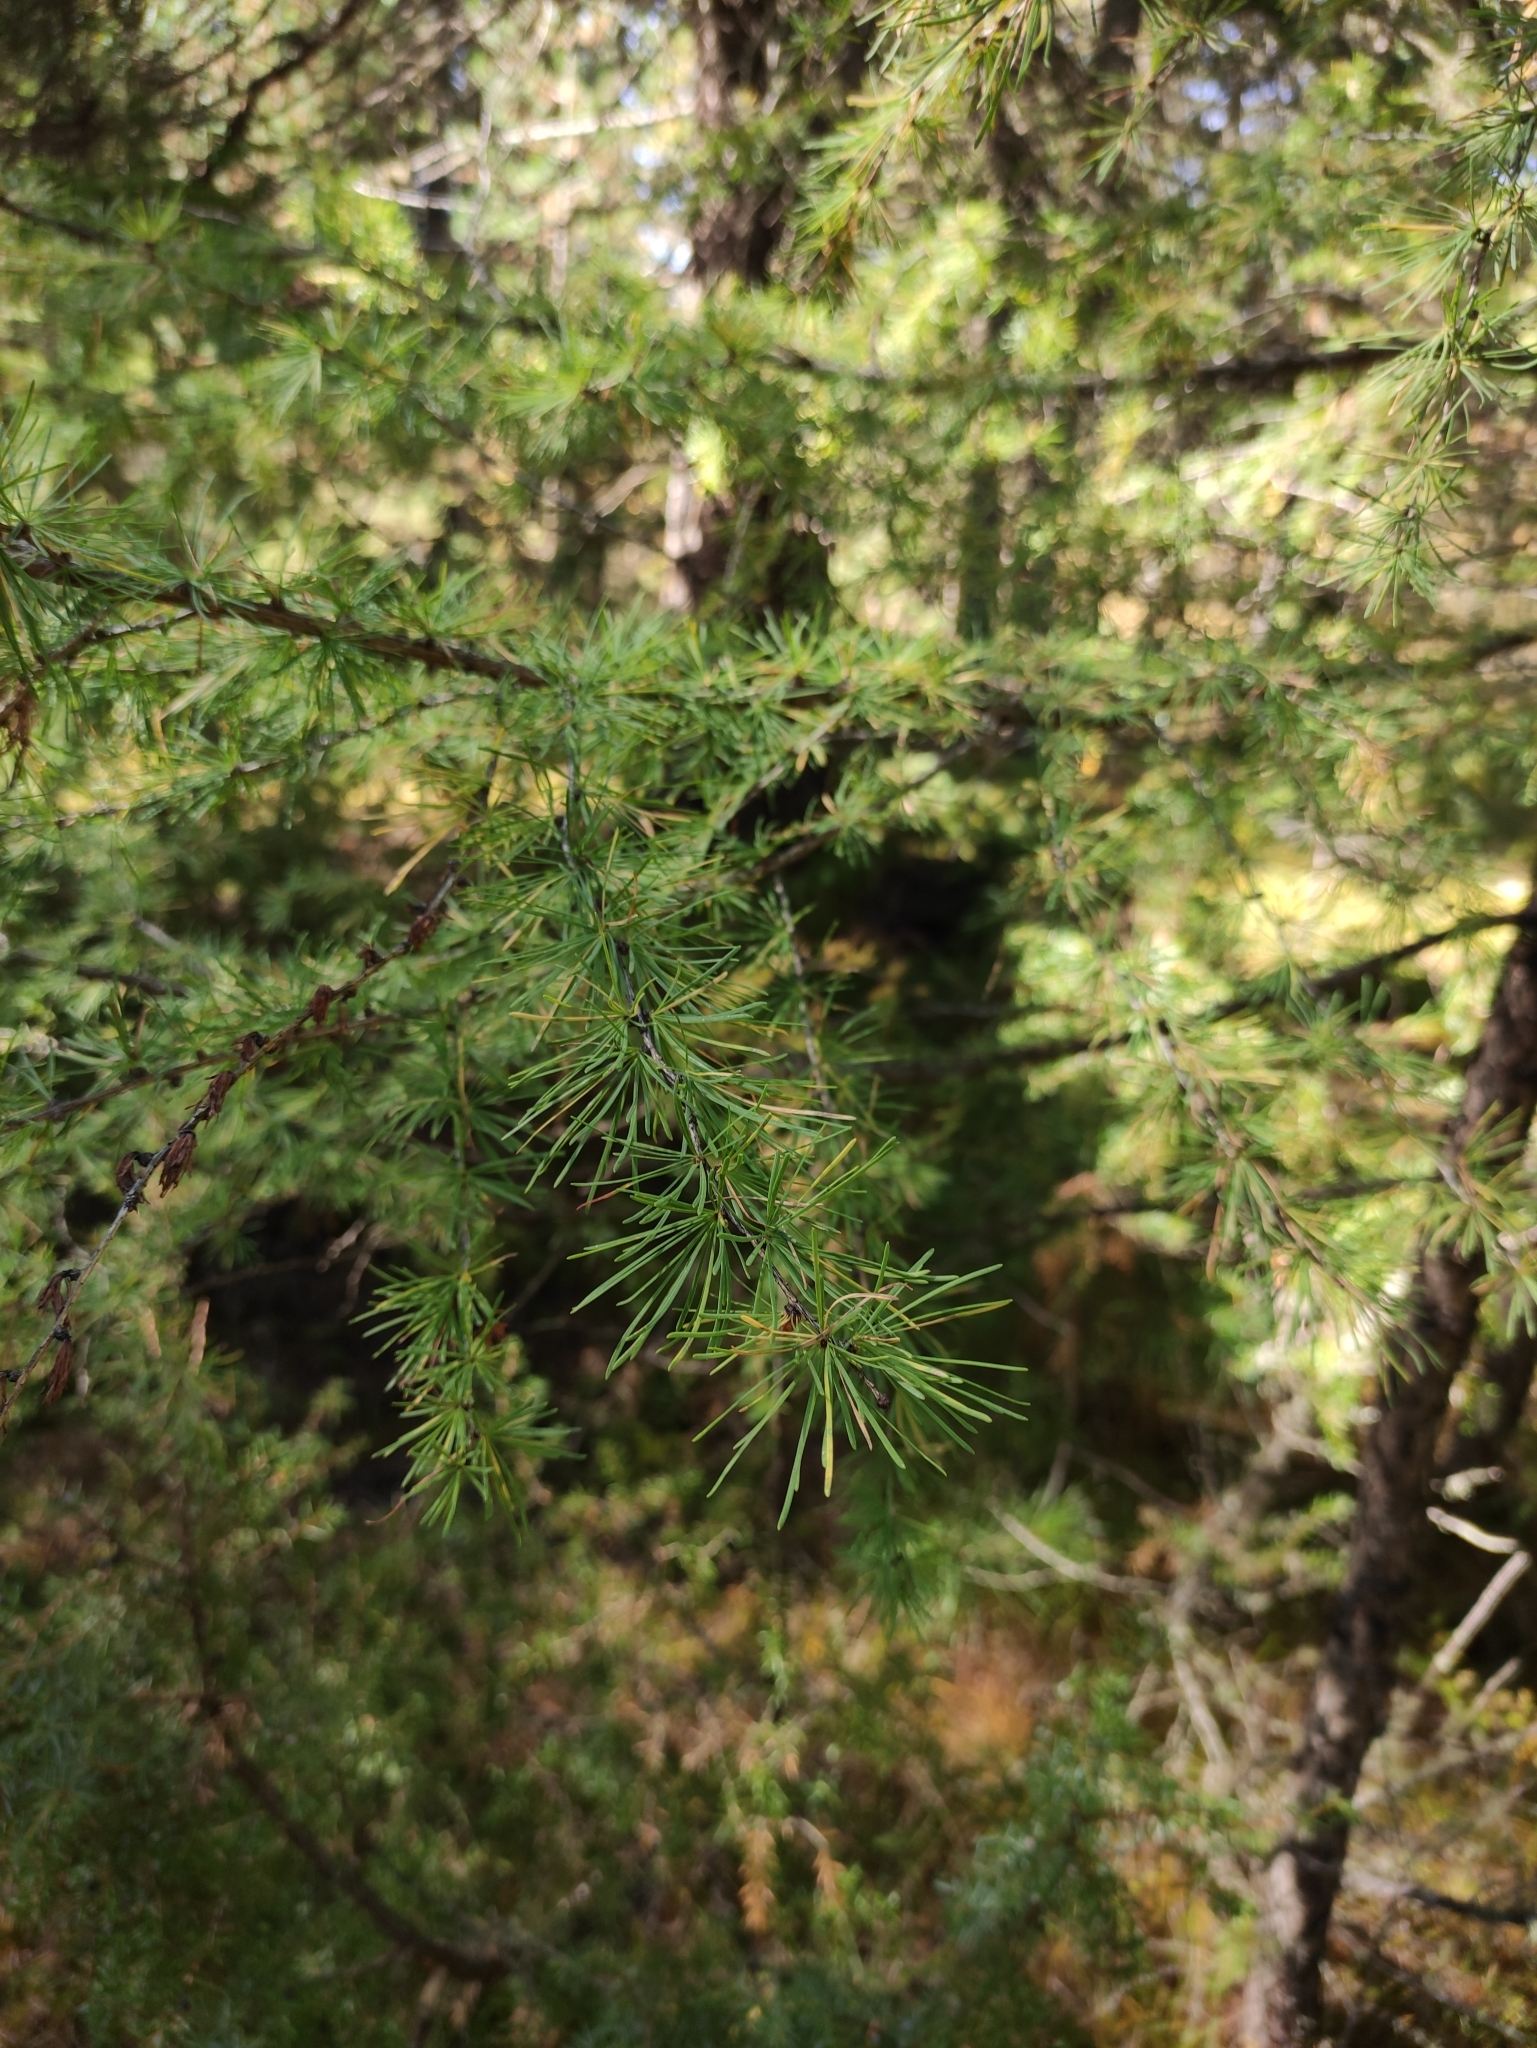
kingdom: Plantae
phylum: Tracheophyta
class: Pinopsida
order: Pinales
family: Pinaceae
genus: Larix
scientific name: Larix sibirica
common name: Siberian larch
